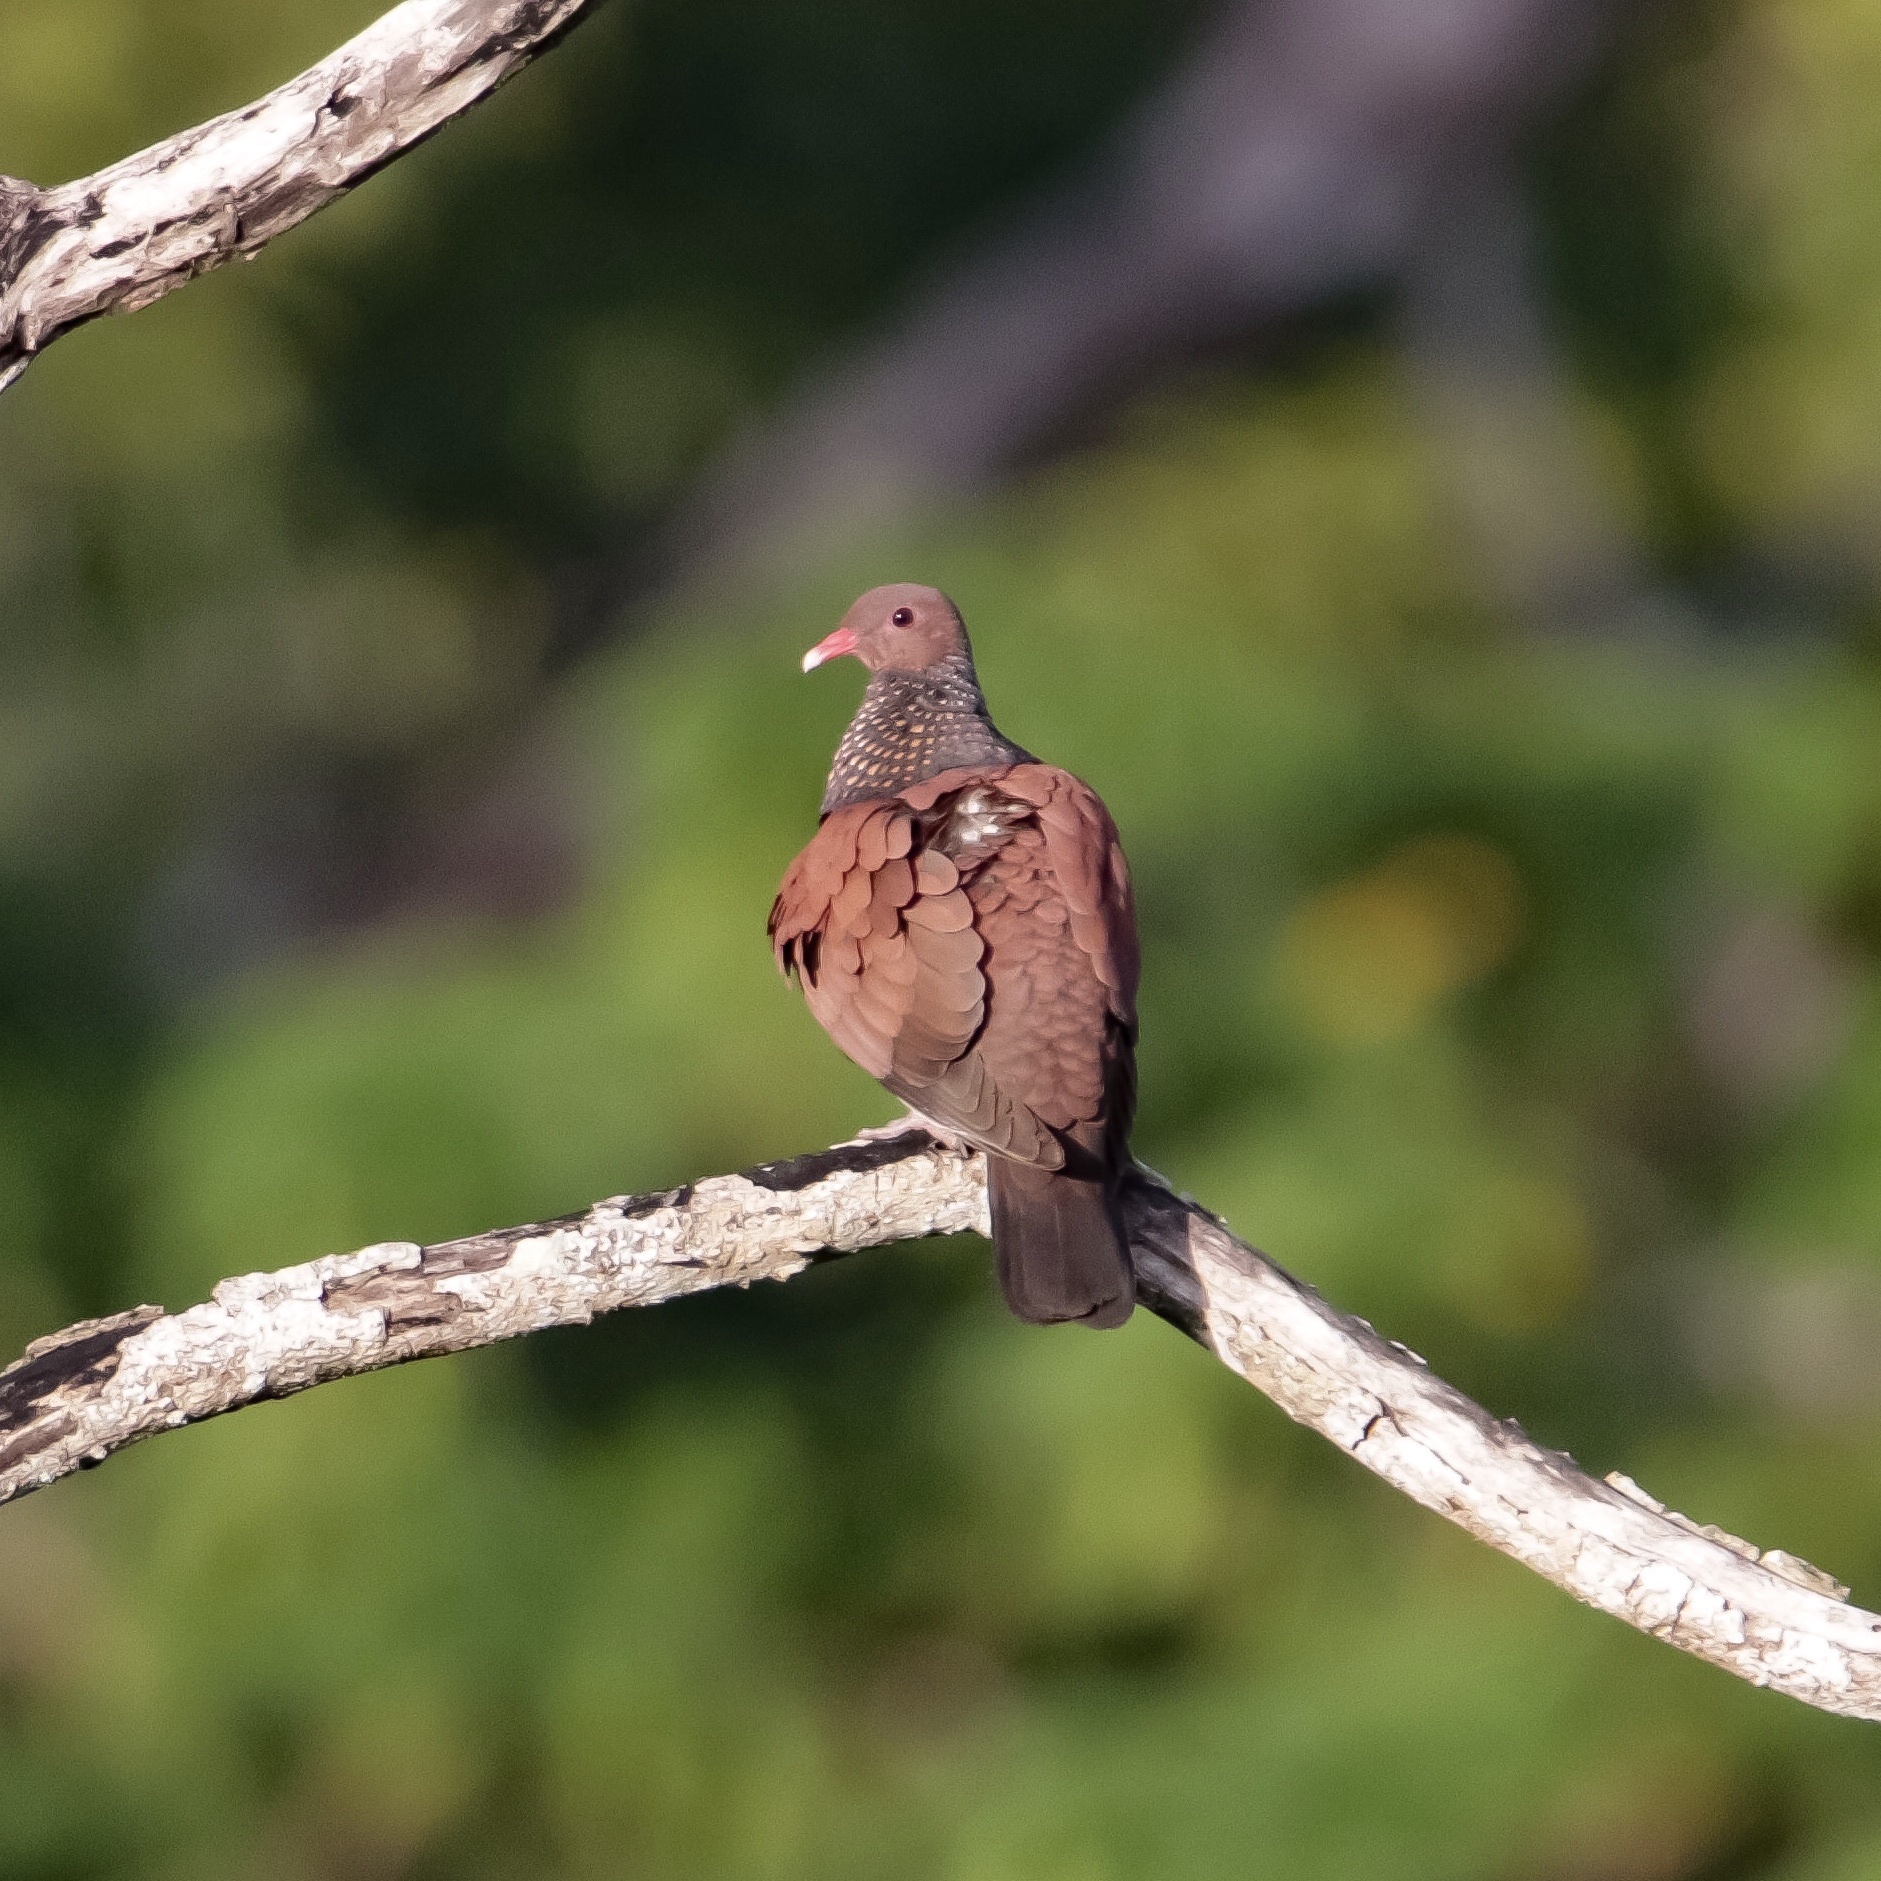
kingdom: Animalia
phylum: Chordata
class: Aves
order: Columbiformes
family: Columbidae
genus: Patagioenas
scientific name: Patagioenas speciosa
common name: Scaled pigeon
